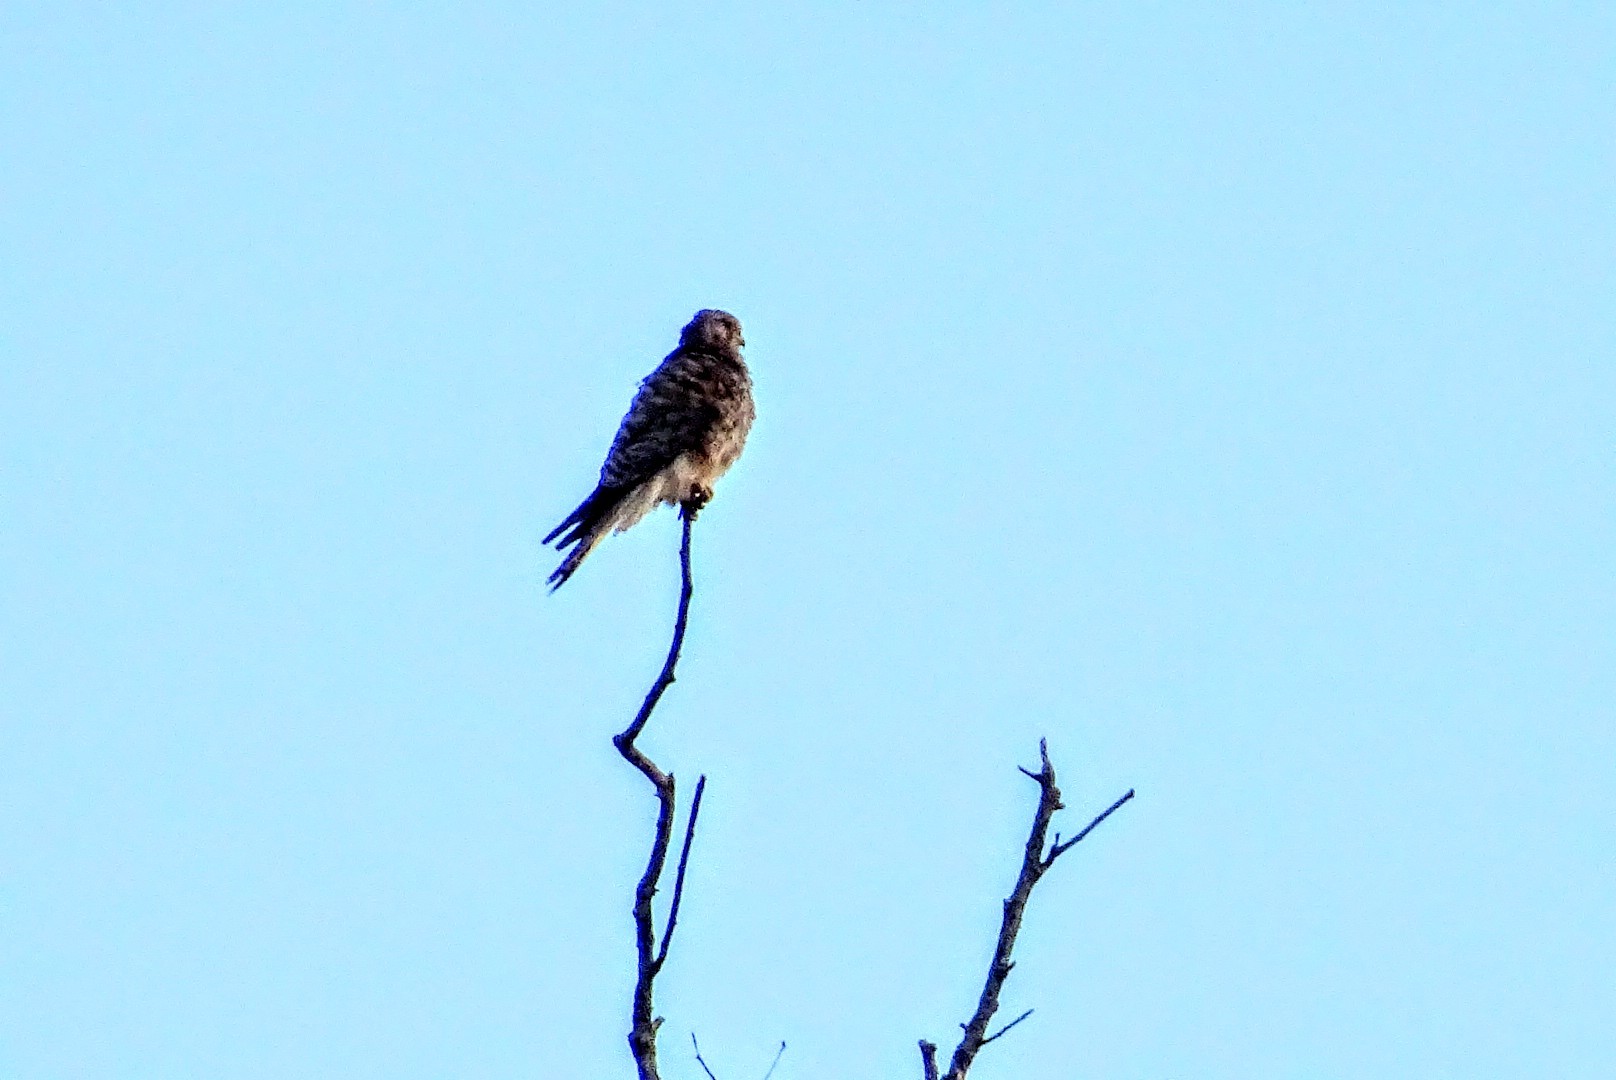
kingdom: Animalia
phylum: Chordata
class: Aves
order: Falconiformes
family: Falconidae
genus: Falco
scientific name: Falco tinnunculus
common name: Common kestrel
